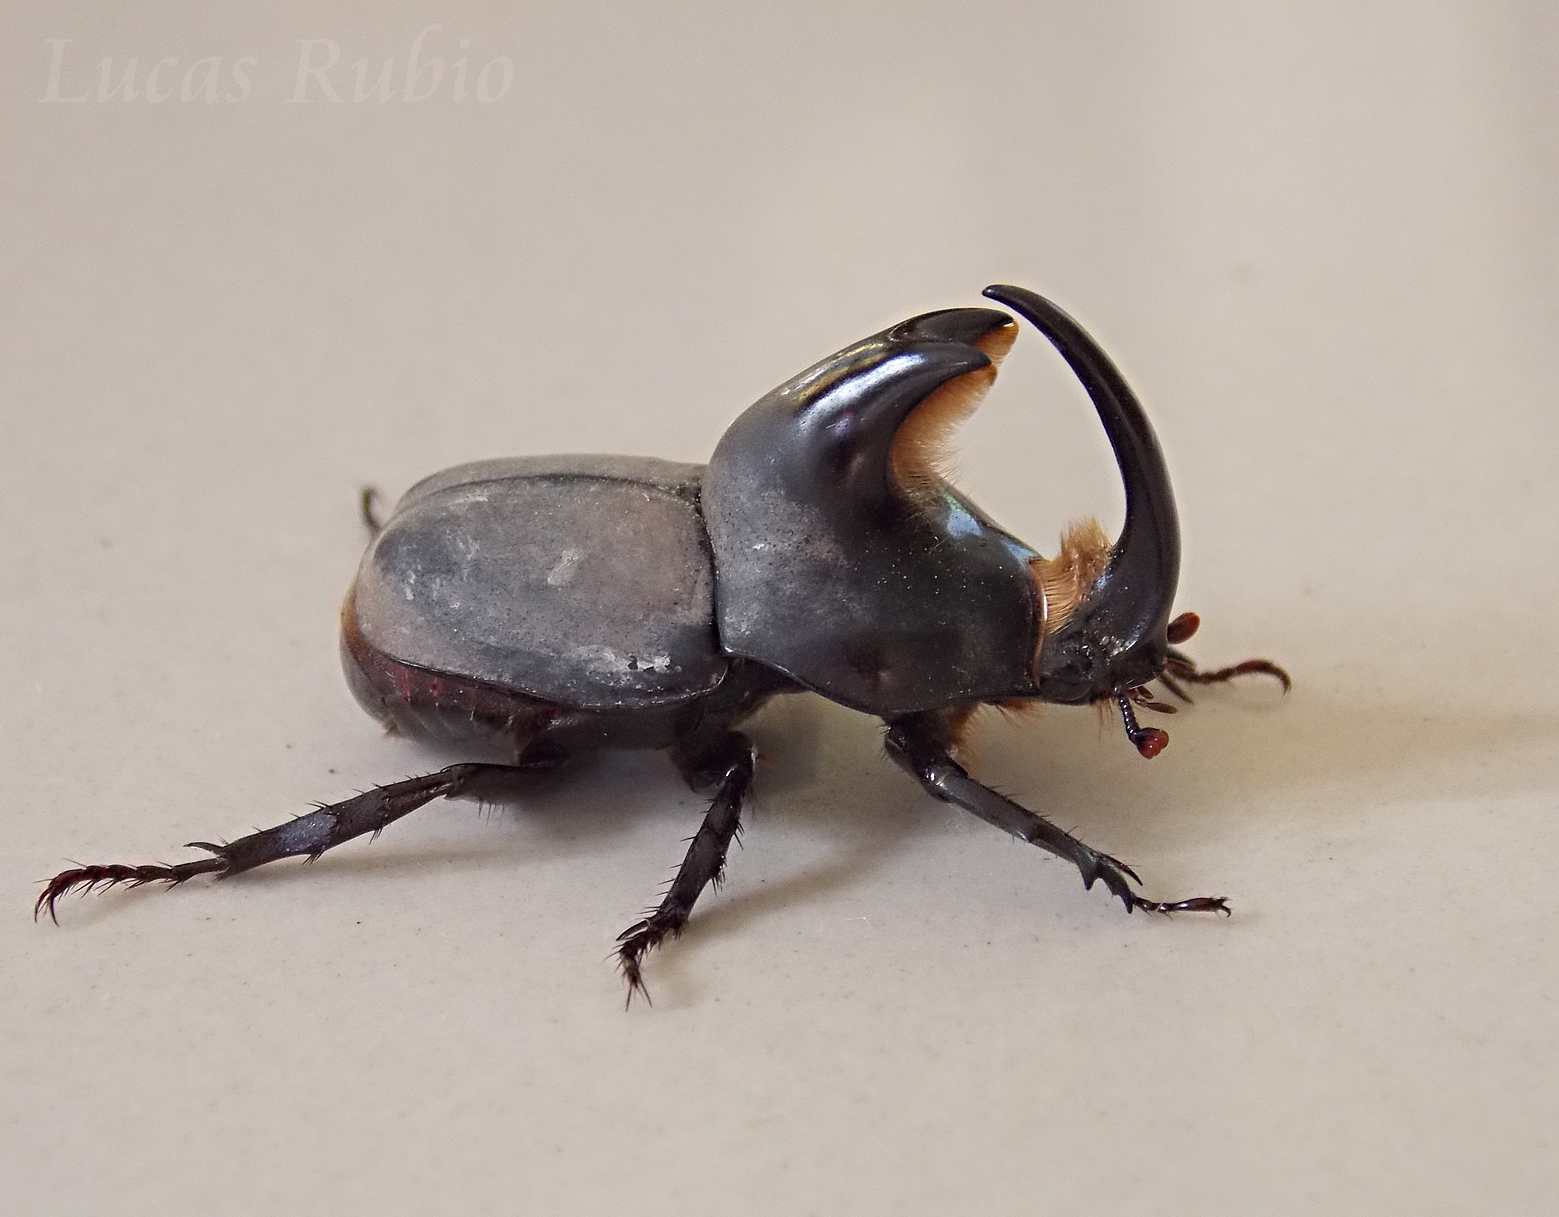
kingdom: Animalia
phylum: Arthropoda
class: Insecta
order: Coleoptera
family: Scarabaeidae
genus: Diloboderus
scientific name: Diloboderus abderus
